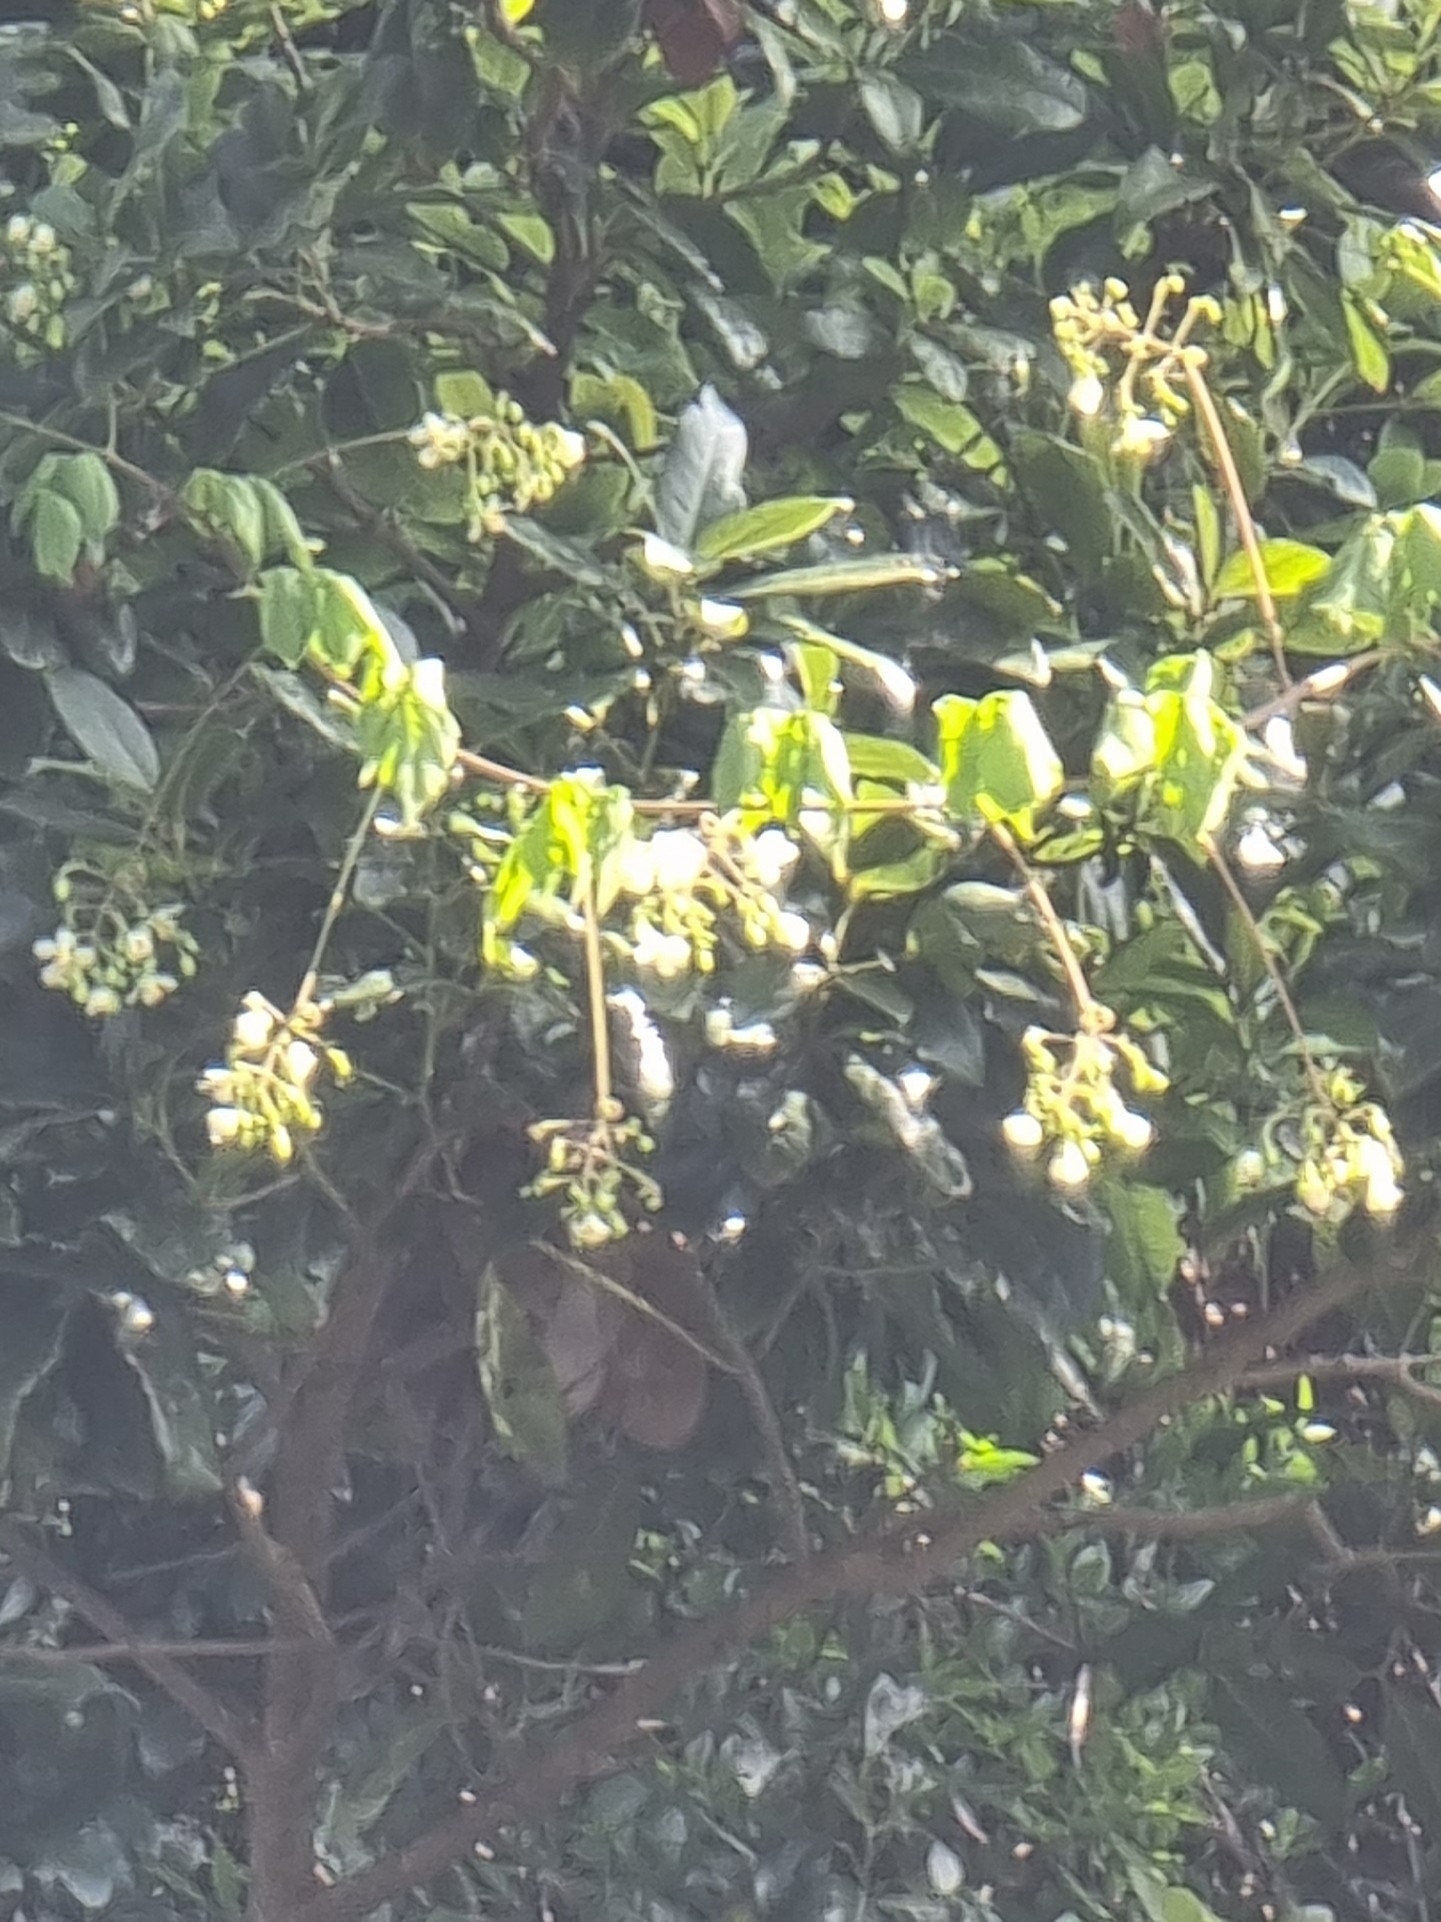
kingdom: Plantae
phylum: Tracheophyta
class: Magnoliopsida
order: Sapindales
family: Sapindaceae
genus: Cardiospermum
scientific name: Cardiospermum grandiflorum
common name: Balloon vine
